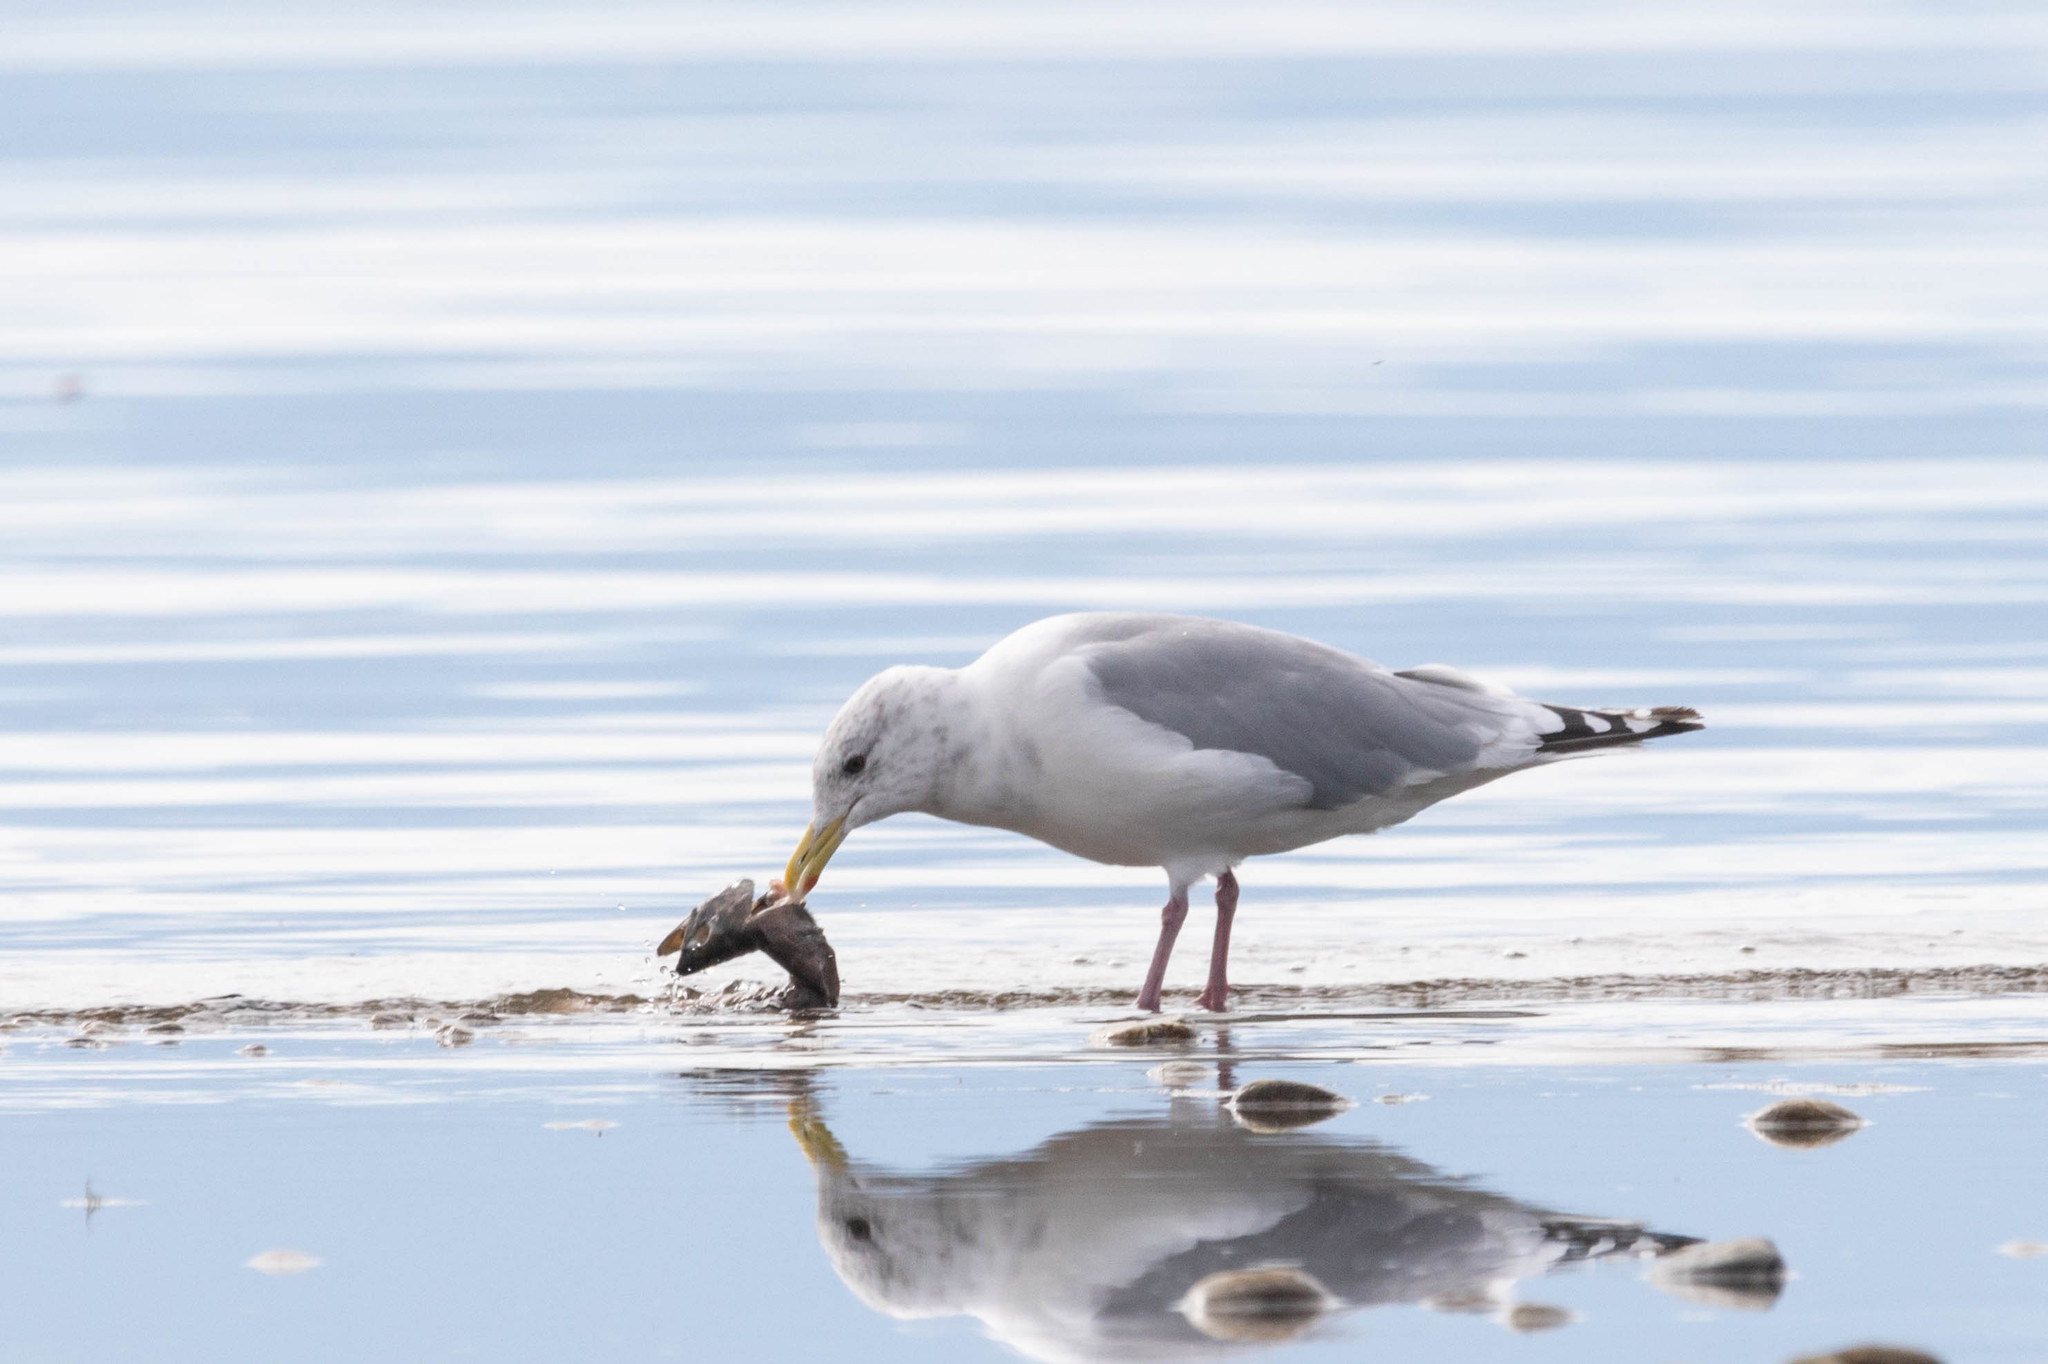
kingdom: Animalia
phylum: Chordata
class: Aves
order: Charadriiformes
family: Laridae
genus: Larus
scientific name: Larus argentatus
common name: Herring gull
